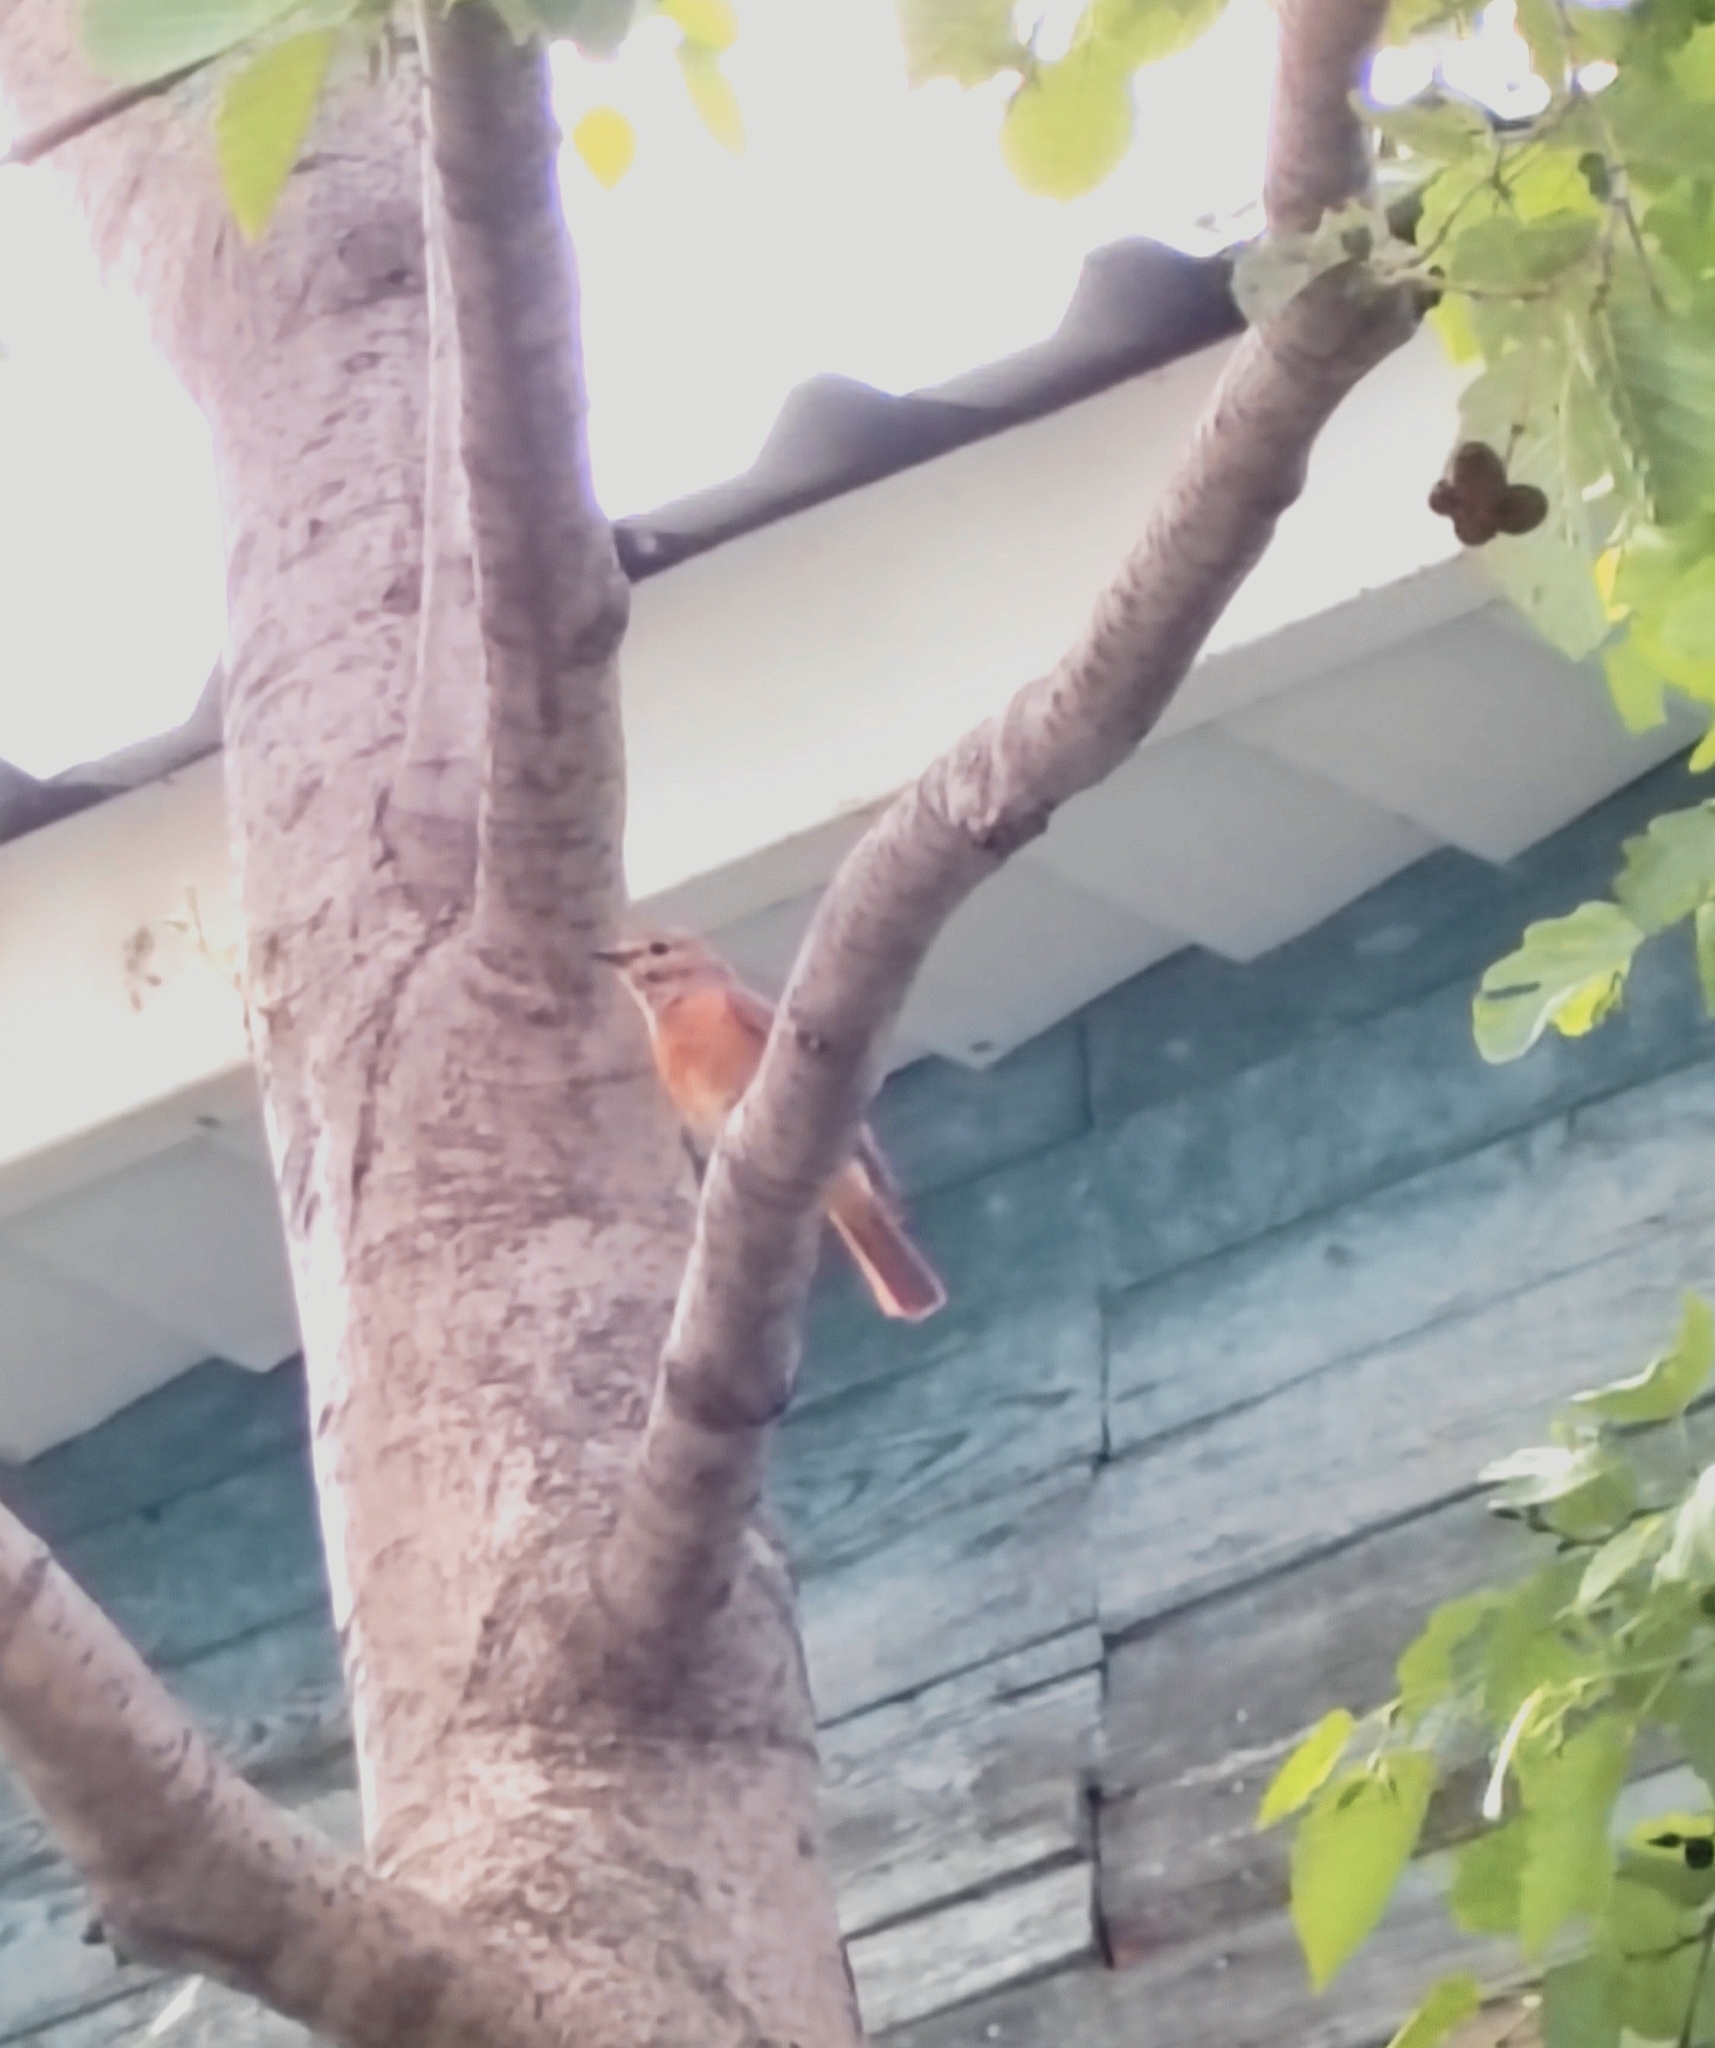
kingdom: Animalia
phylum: Chordata
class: Aves
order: Passeriformes
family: Muscicapidae
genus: Phoenicurus
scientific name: Phoenicurus phoenicurus
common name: Common redstart
